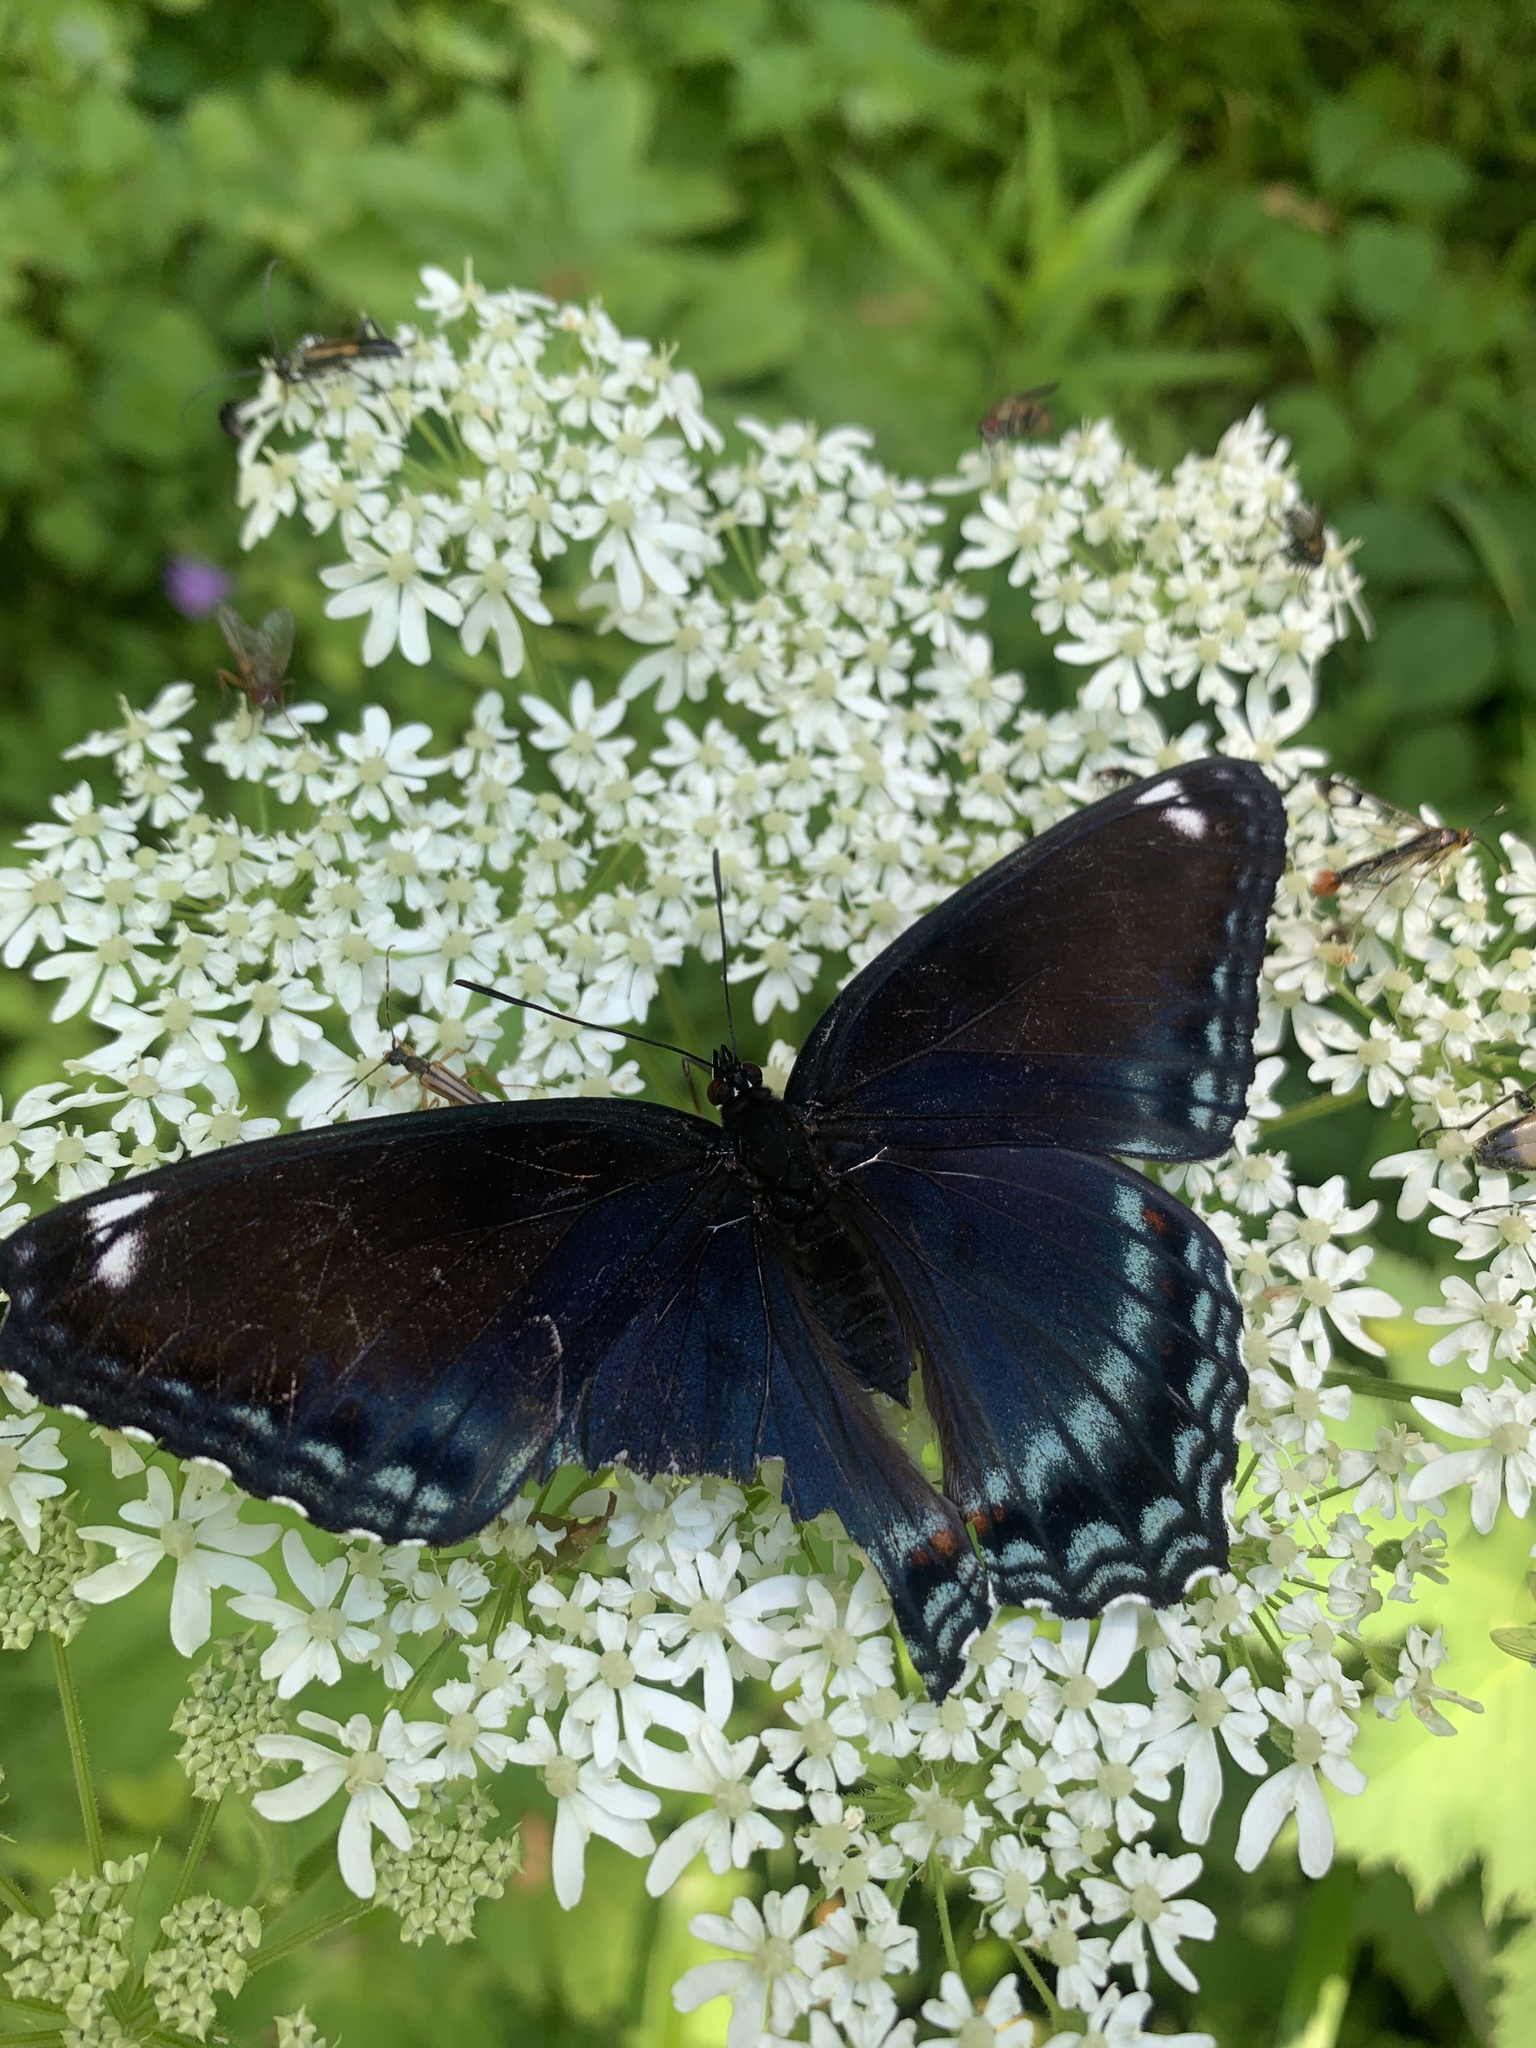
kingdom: Animalia
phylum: Arthropoda
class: Insecta
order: Lepidoptera
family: Nymphalidae
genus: Limenitis
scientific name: Limenitis astyanax
